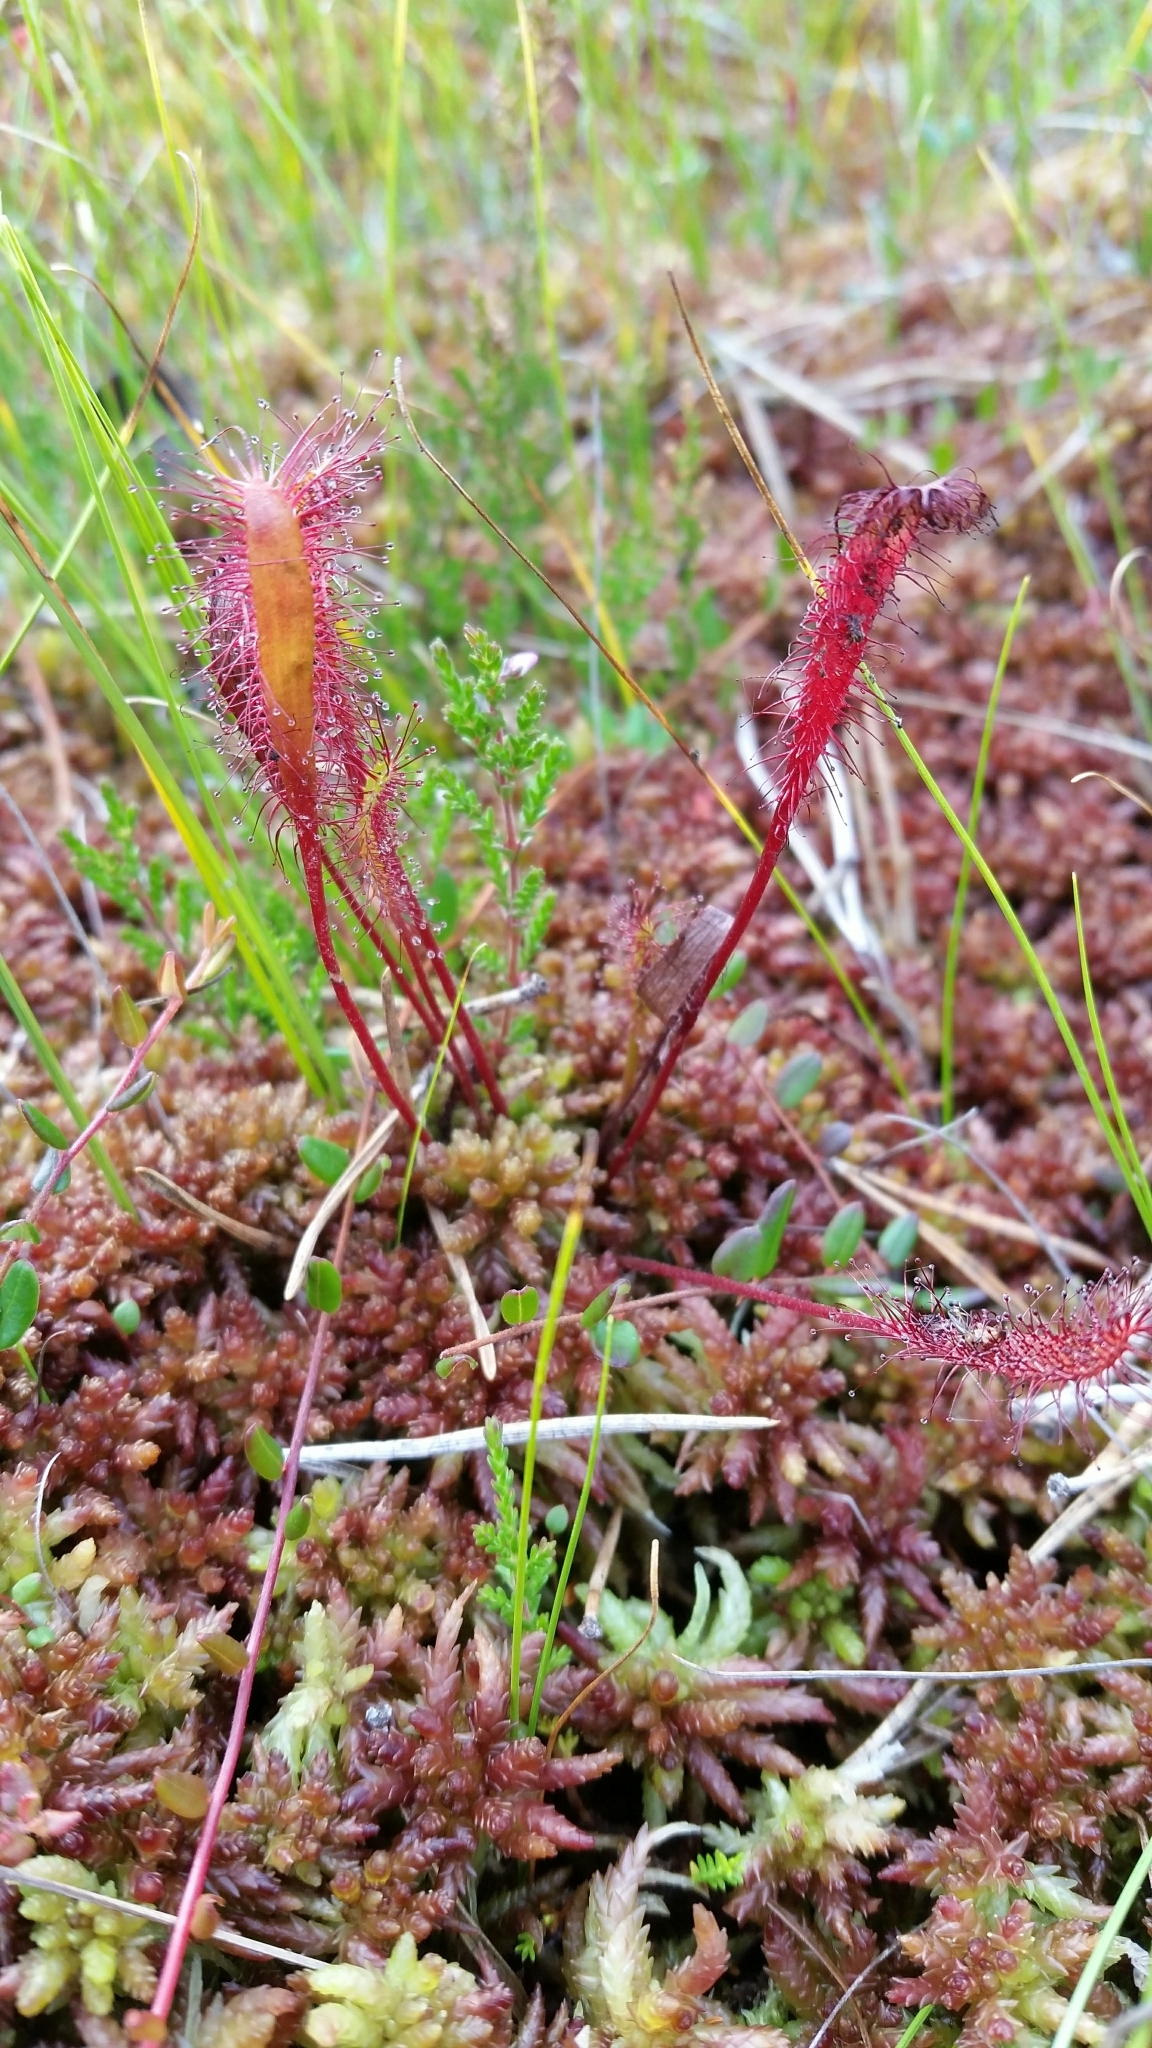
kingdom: Plantae
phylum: Tracheophyta
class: Magnoliopsida
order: Caryophyllales
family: Droseraceae
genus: Drosera
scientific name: Drosera anglica
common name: Great sundew
